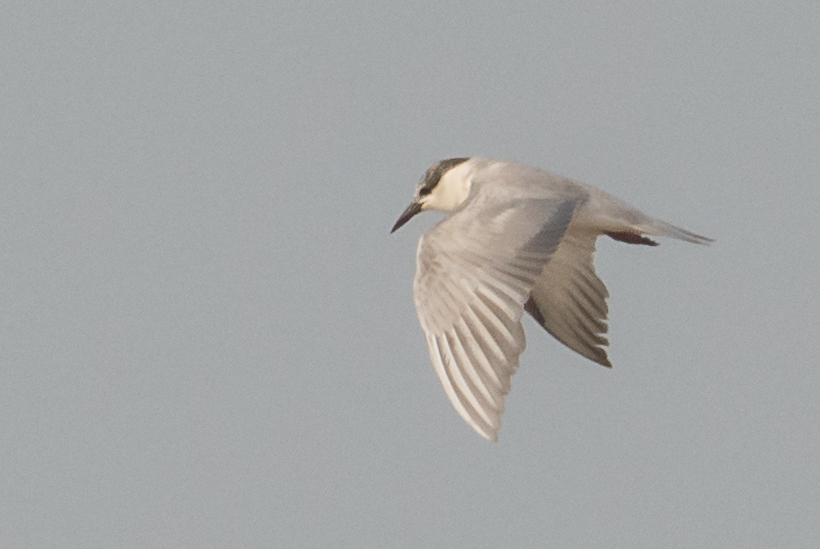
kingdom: Animalia
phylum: Chordata
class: Aves
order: Charadriiformes
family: Laridae
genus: Chlidonias
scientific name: Chlidonias hybrida
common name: Whiskered tern
